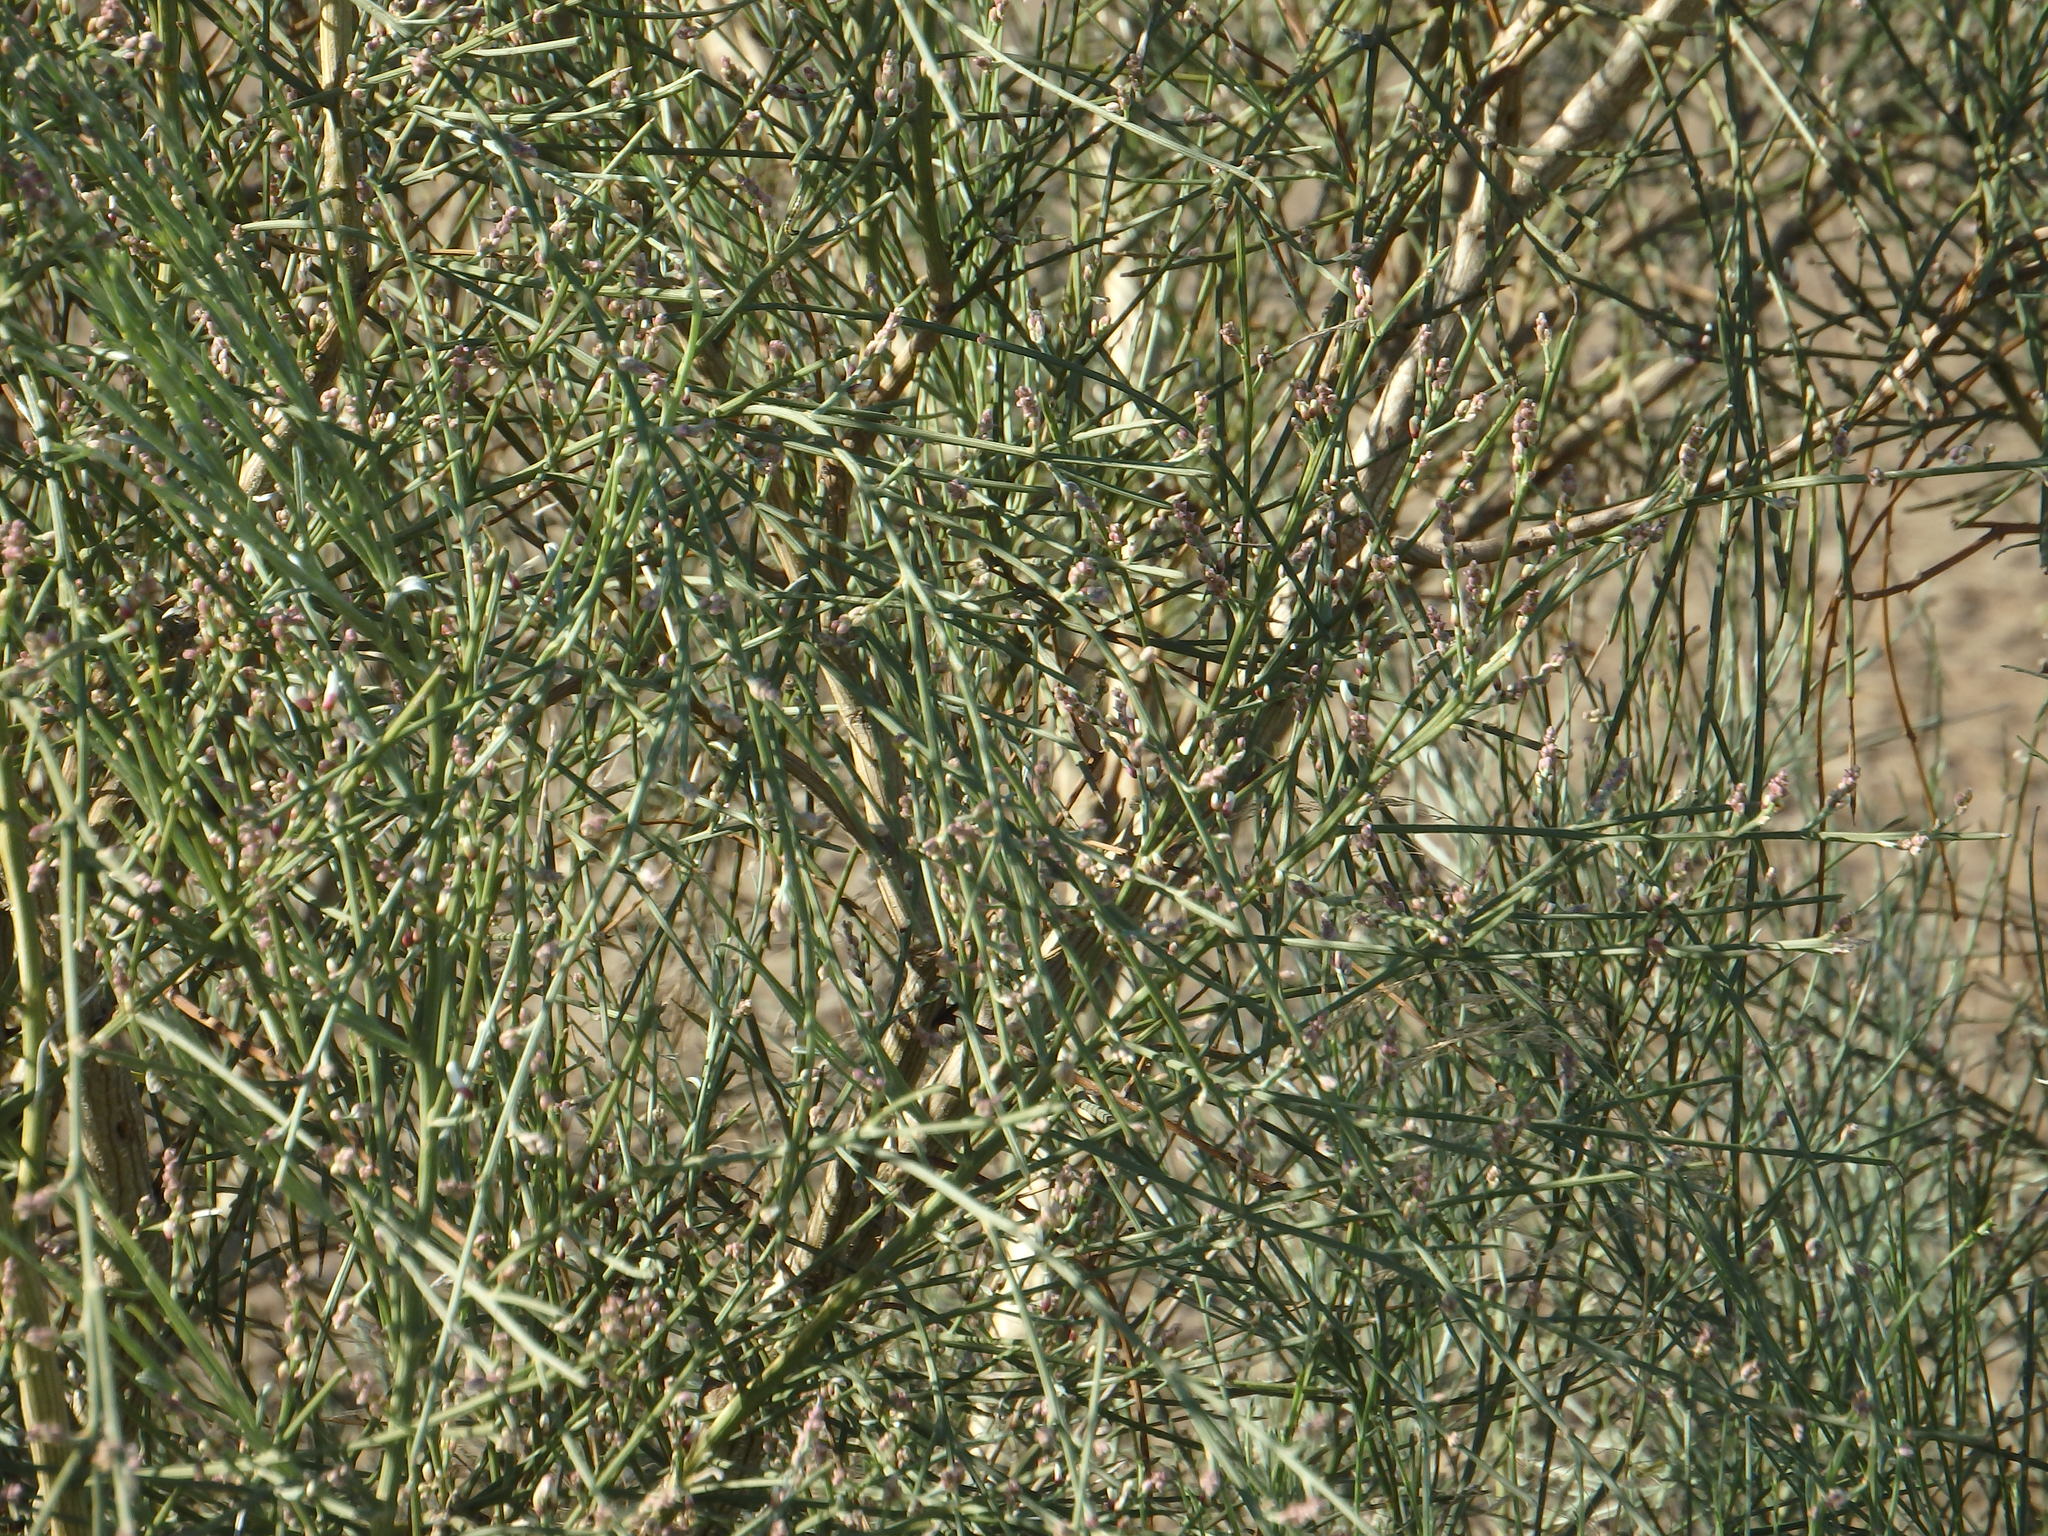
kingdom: Plantae
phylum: Tracheophyta
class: Magnoliopsida
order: Fabales
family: Fabaceae
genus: Retama
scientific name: Retama monosperma
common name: Bridal broom
